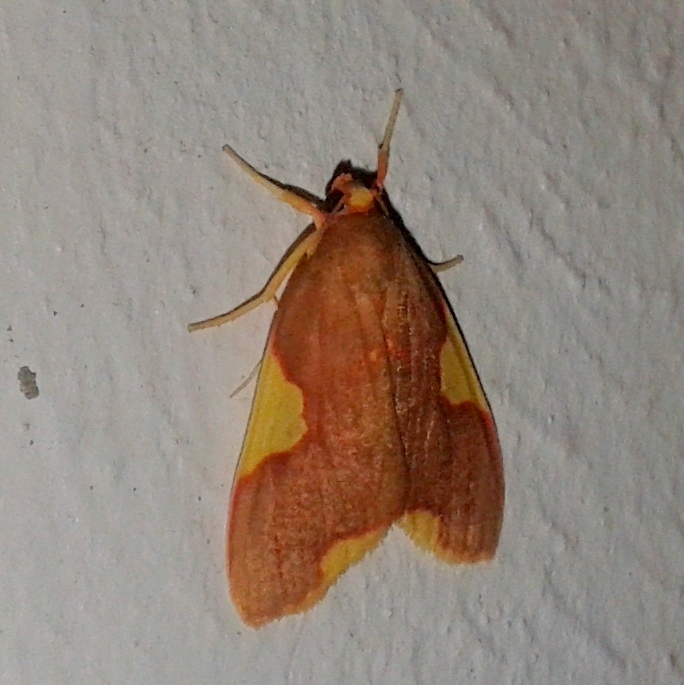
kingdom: Animalia
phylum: Arthropoda
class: Insecta
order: Lepidoptera
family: Erebidae
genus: Trichromia
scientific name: Trichromia
